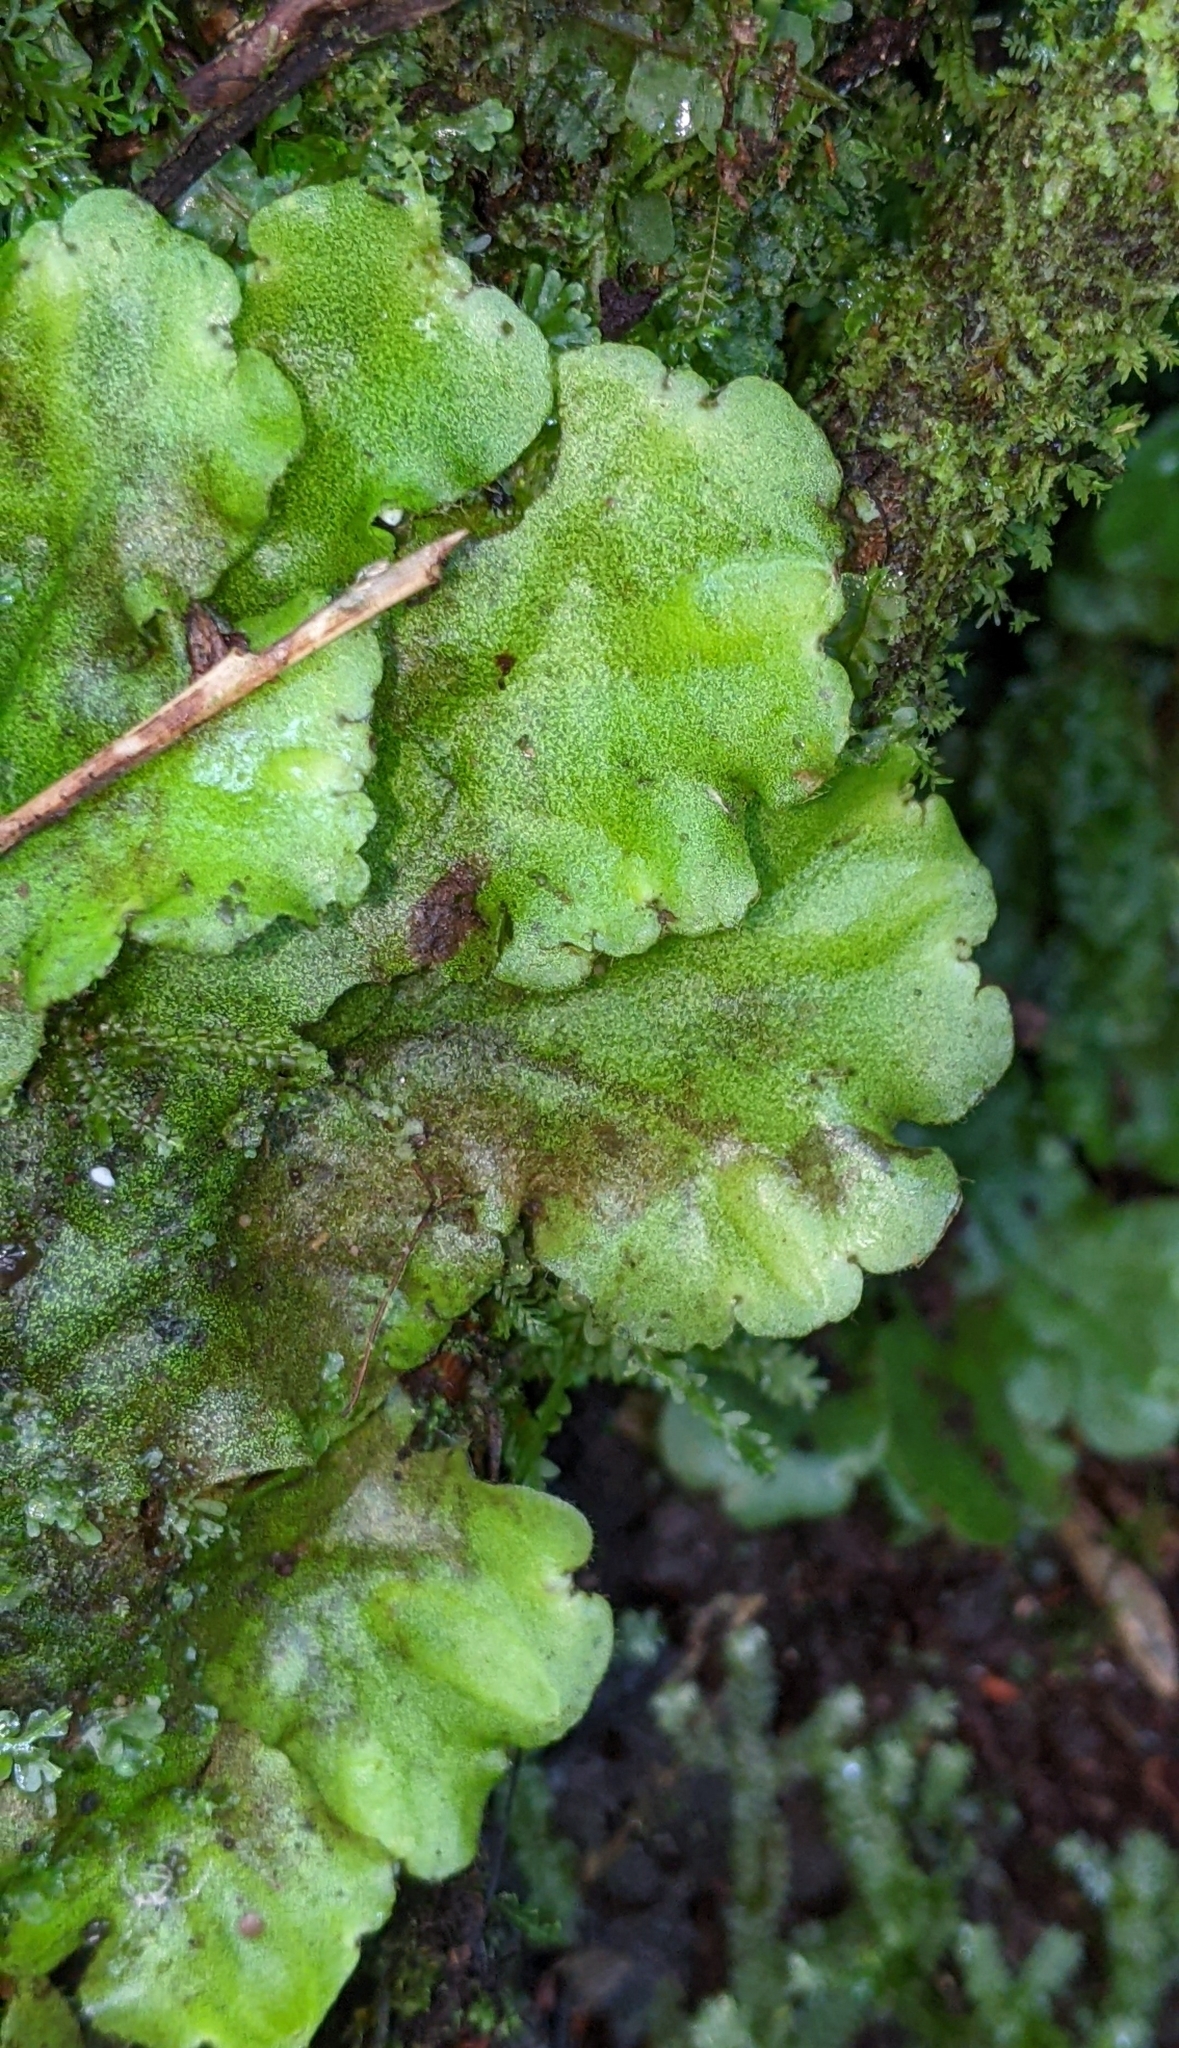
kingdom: Plantae
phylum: Marchantiophyta
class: Marchantiopsida
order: Marchantiales
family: Monocleaceae
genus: Monoclea
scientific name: Monoclea gottschei
